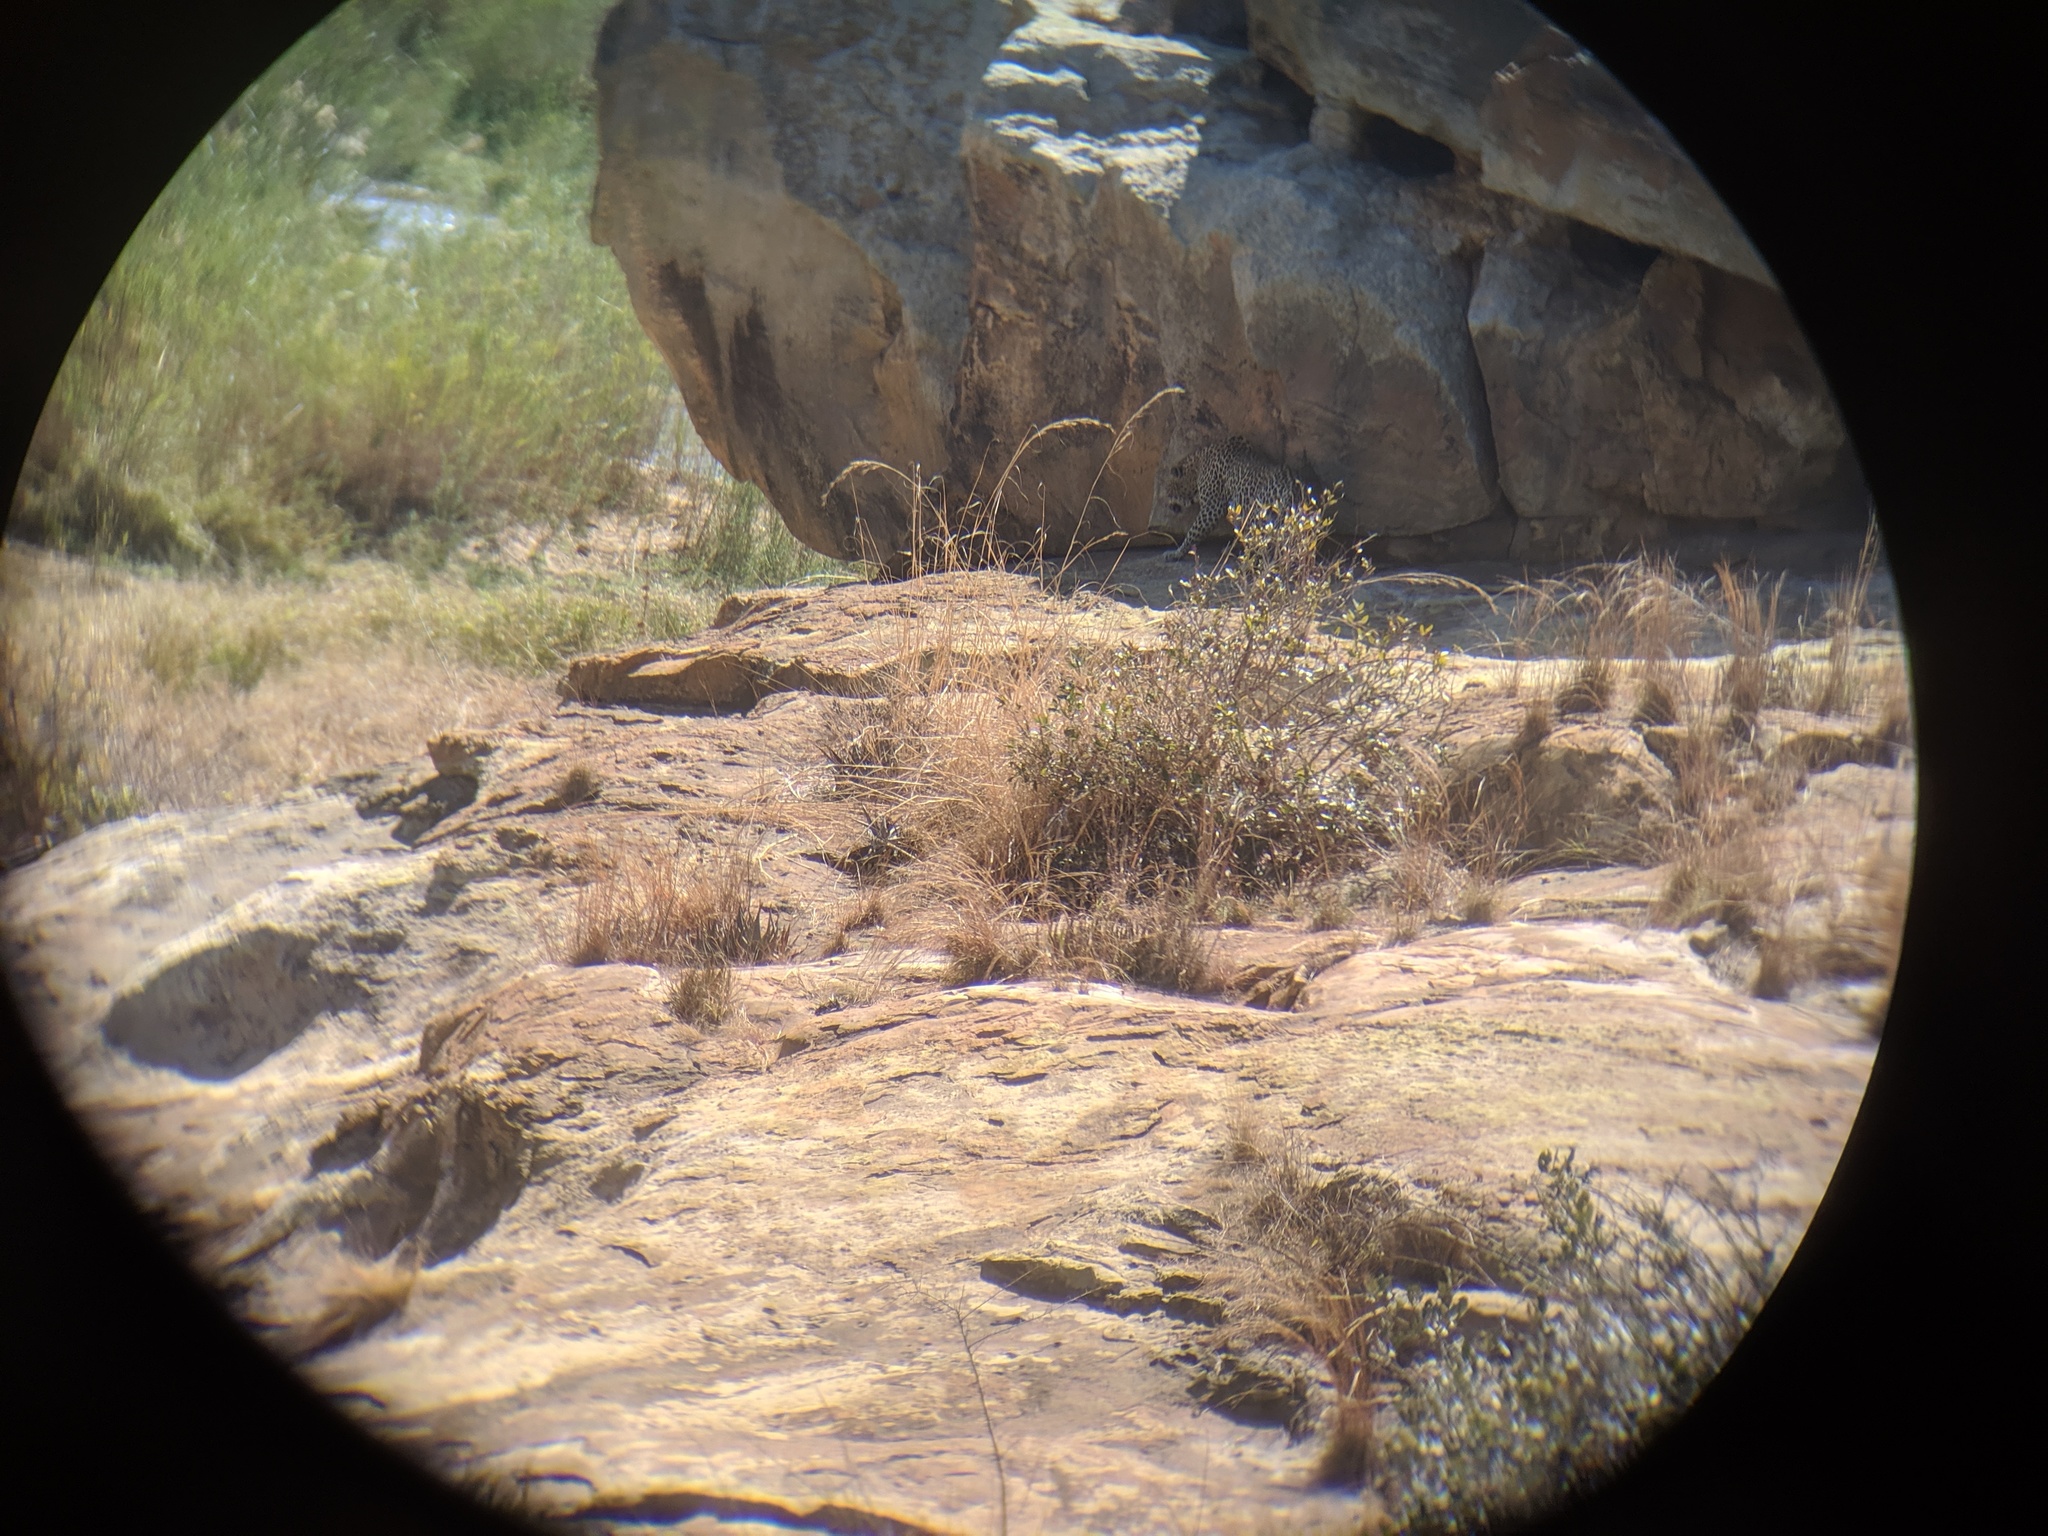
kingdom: Animalia
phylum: Chordata
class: Mammalia
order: Carnivora
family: Felidae
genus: Panthera
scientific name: Panthera pardus
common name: Leopard
